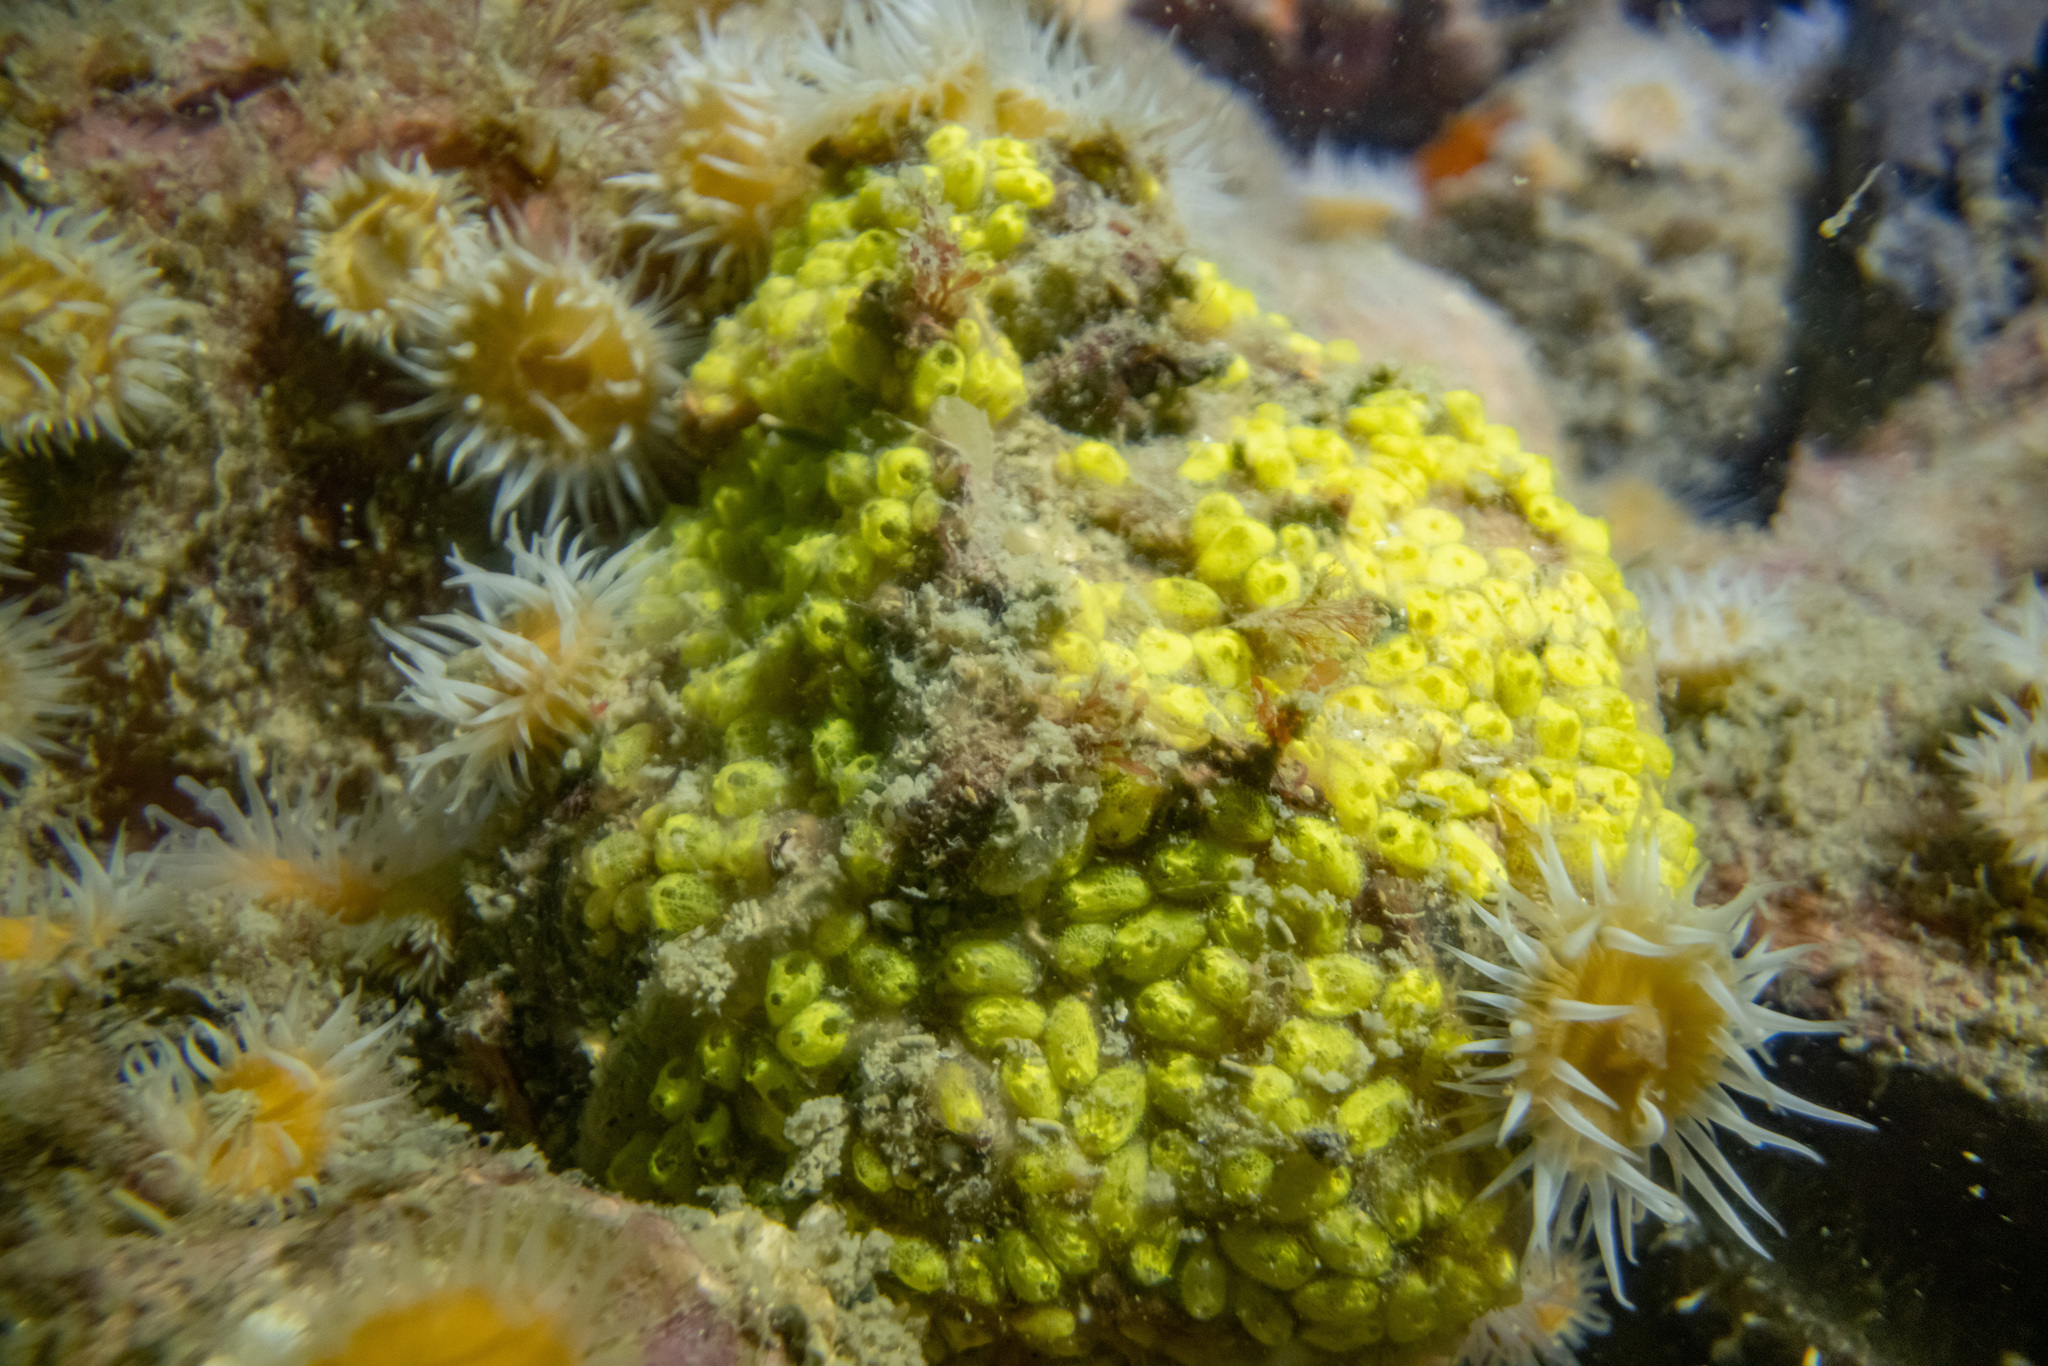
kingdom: Animalia
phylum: Chordata
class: Ascidiacea
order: Stolidobranchia
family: Styelidae
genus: Symplegma
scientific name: Symplegma brakenhielmi
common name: Ascidian
